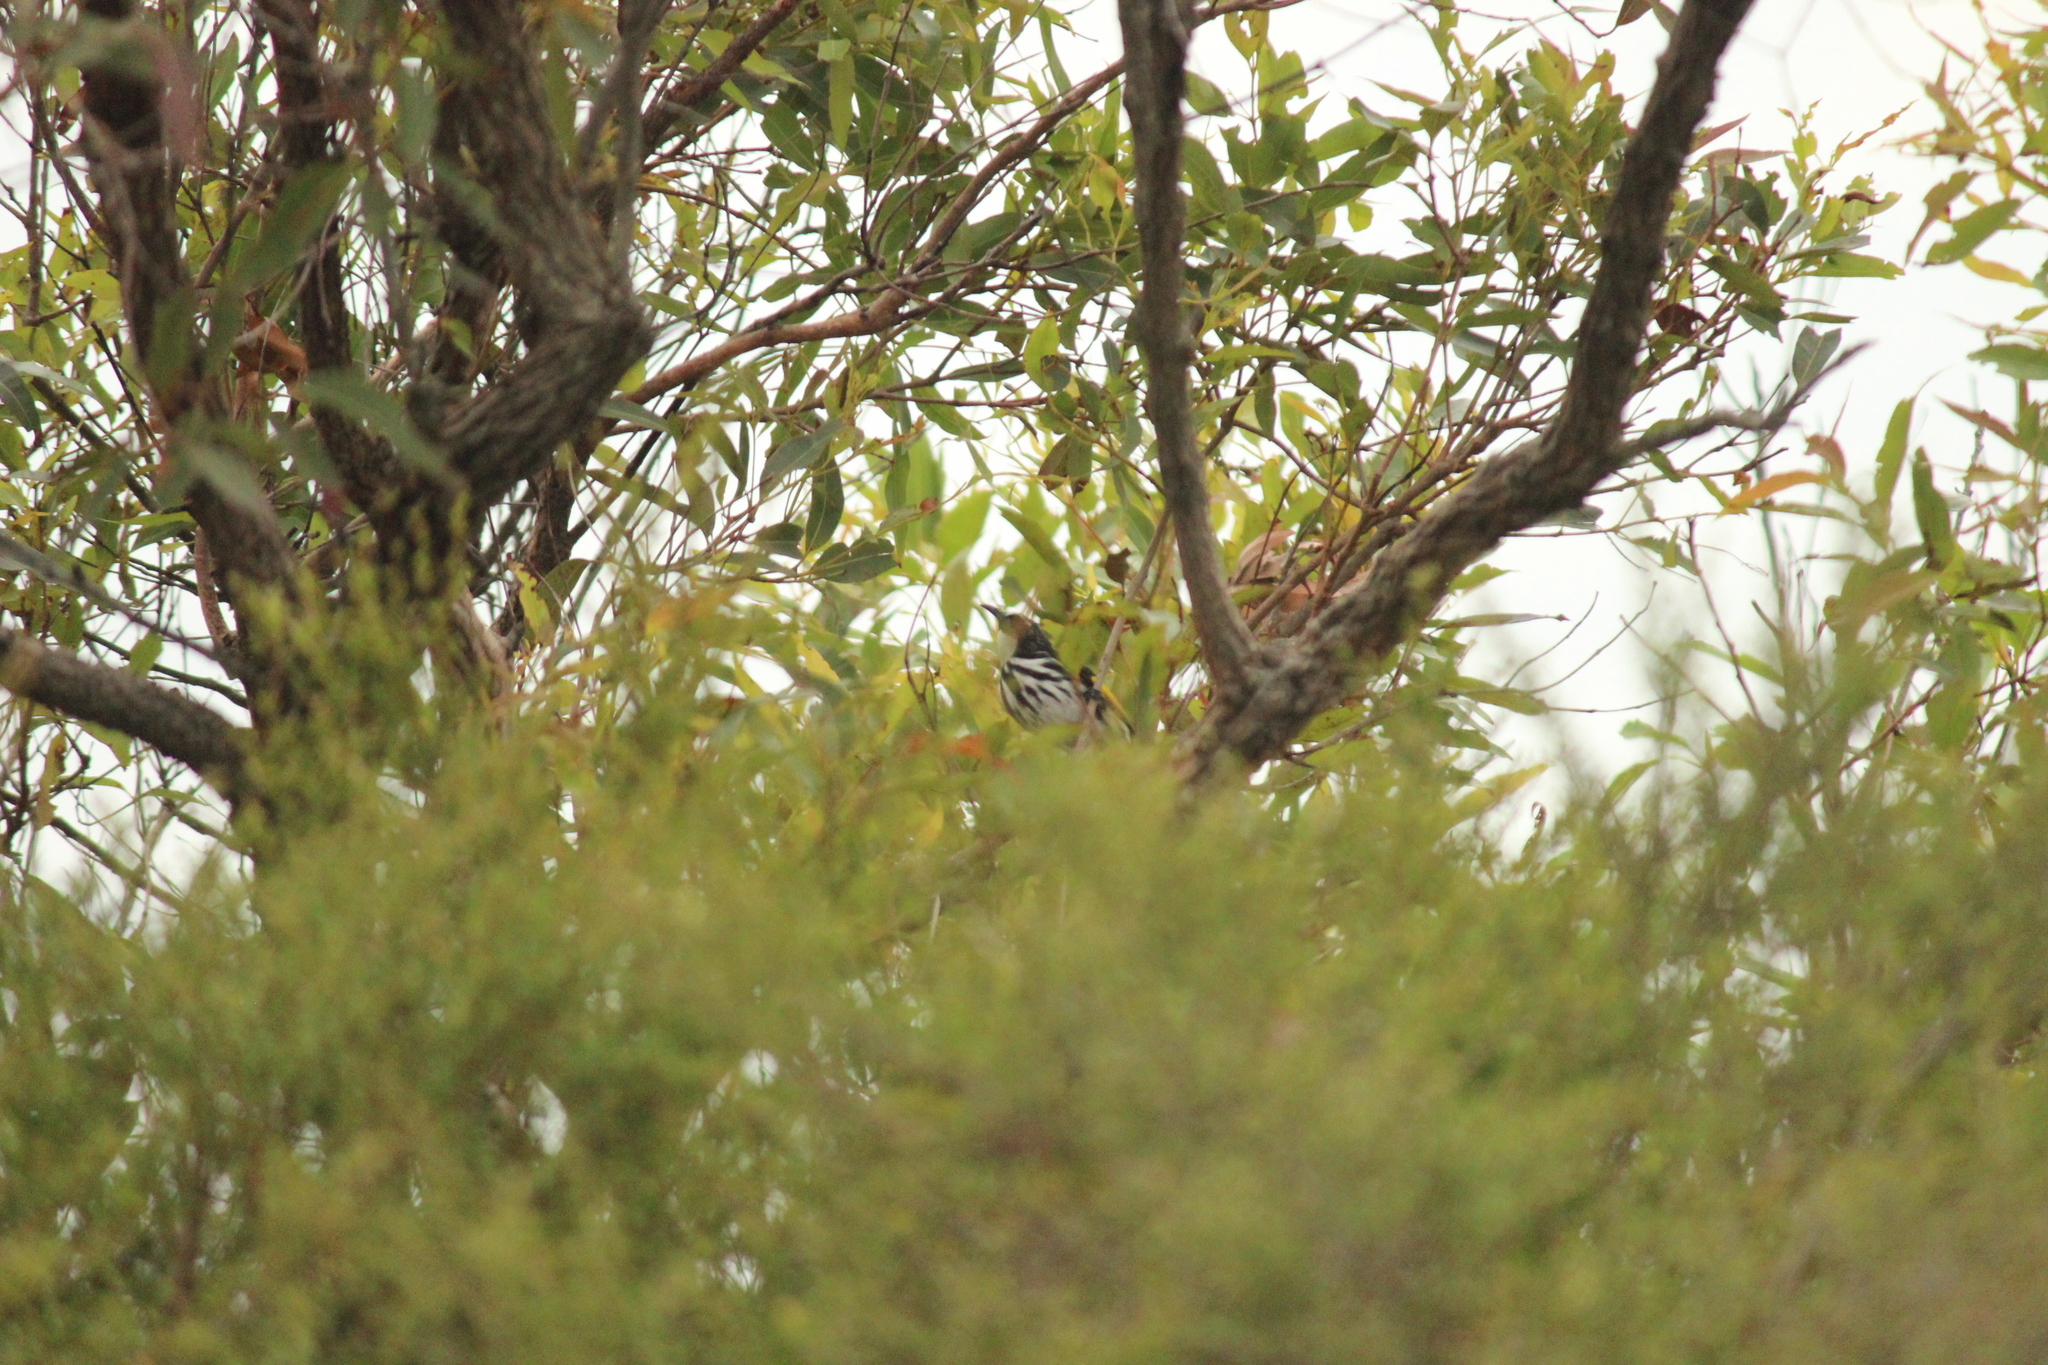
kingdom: Animalia
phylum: Chordata
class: Aves
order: Passeriformes
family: Meliphagidae
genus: Phylidonyris
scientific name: Phylidonyris niger
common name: White-cheeked honeyeater
